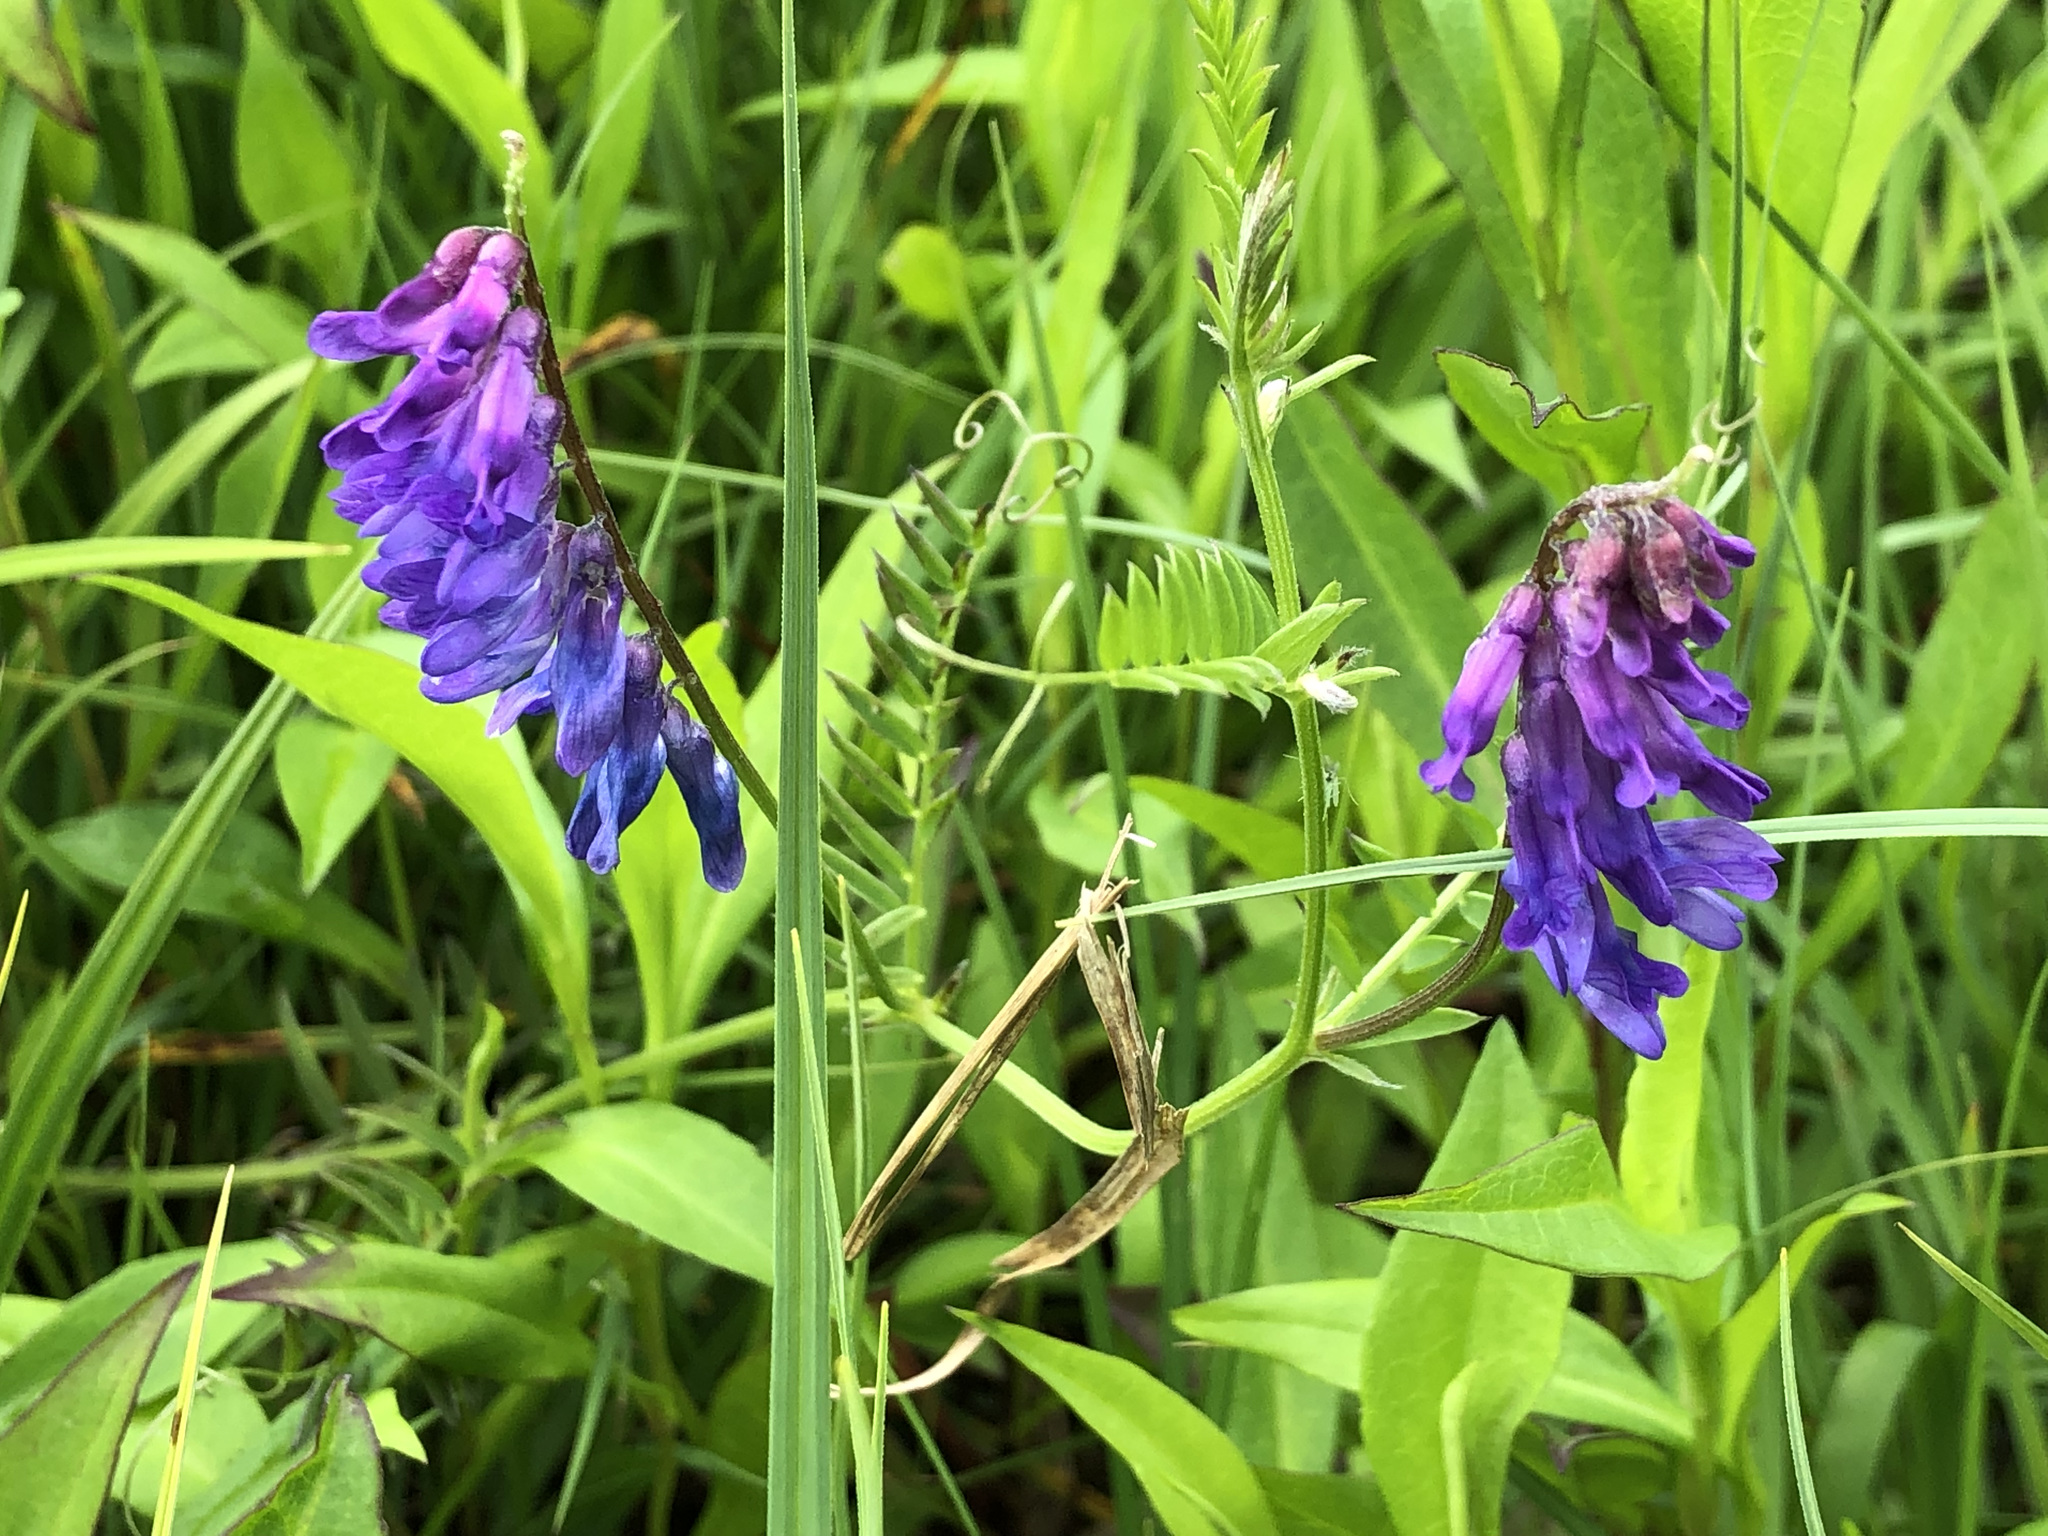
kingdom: Plantae
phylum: Tracheophyta
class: Magnoliopsida
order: Fabales
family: Fabaceae
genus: Vicia
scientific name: Vicia cracca
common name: Bird vetch
